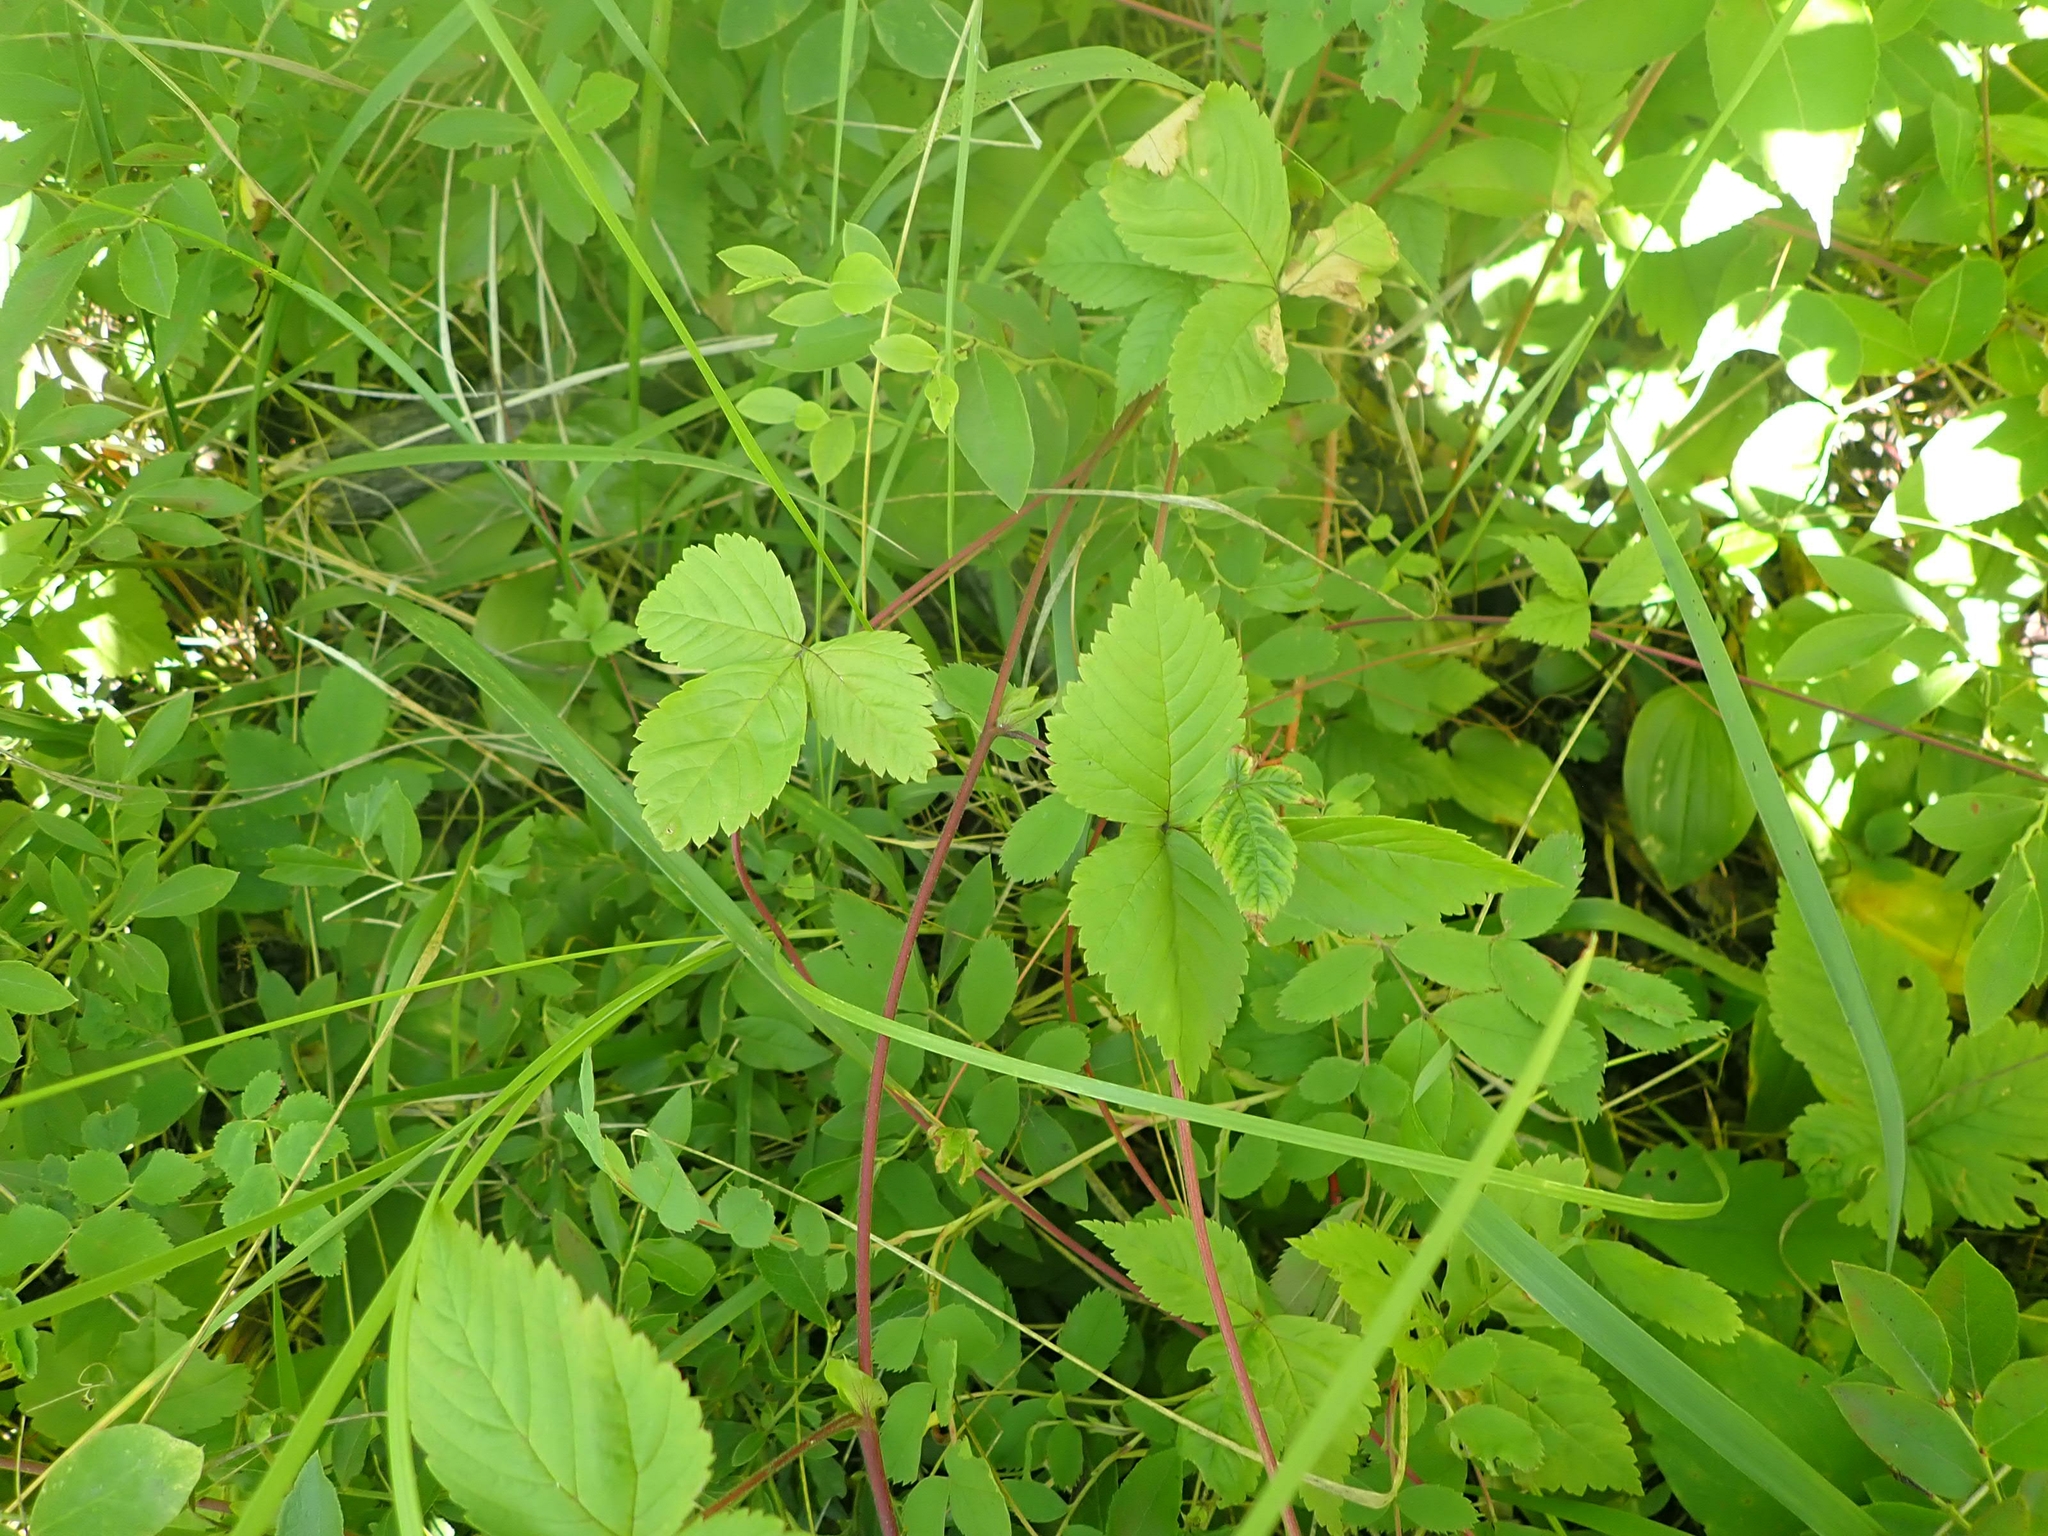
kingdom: Plantae
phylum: Tracheophyta
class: Magnoliopsida
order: Rosales
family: Rosaceae
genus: Rubus
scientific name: Rubus pubescens
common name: Dwarf raspberry
